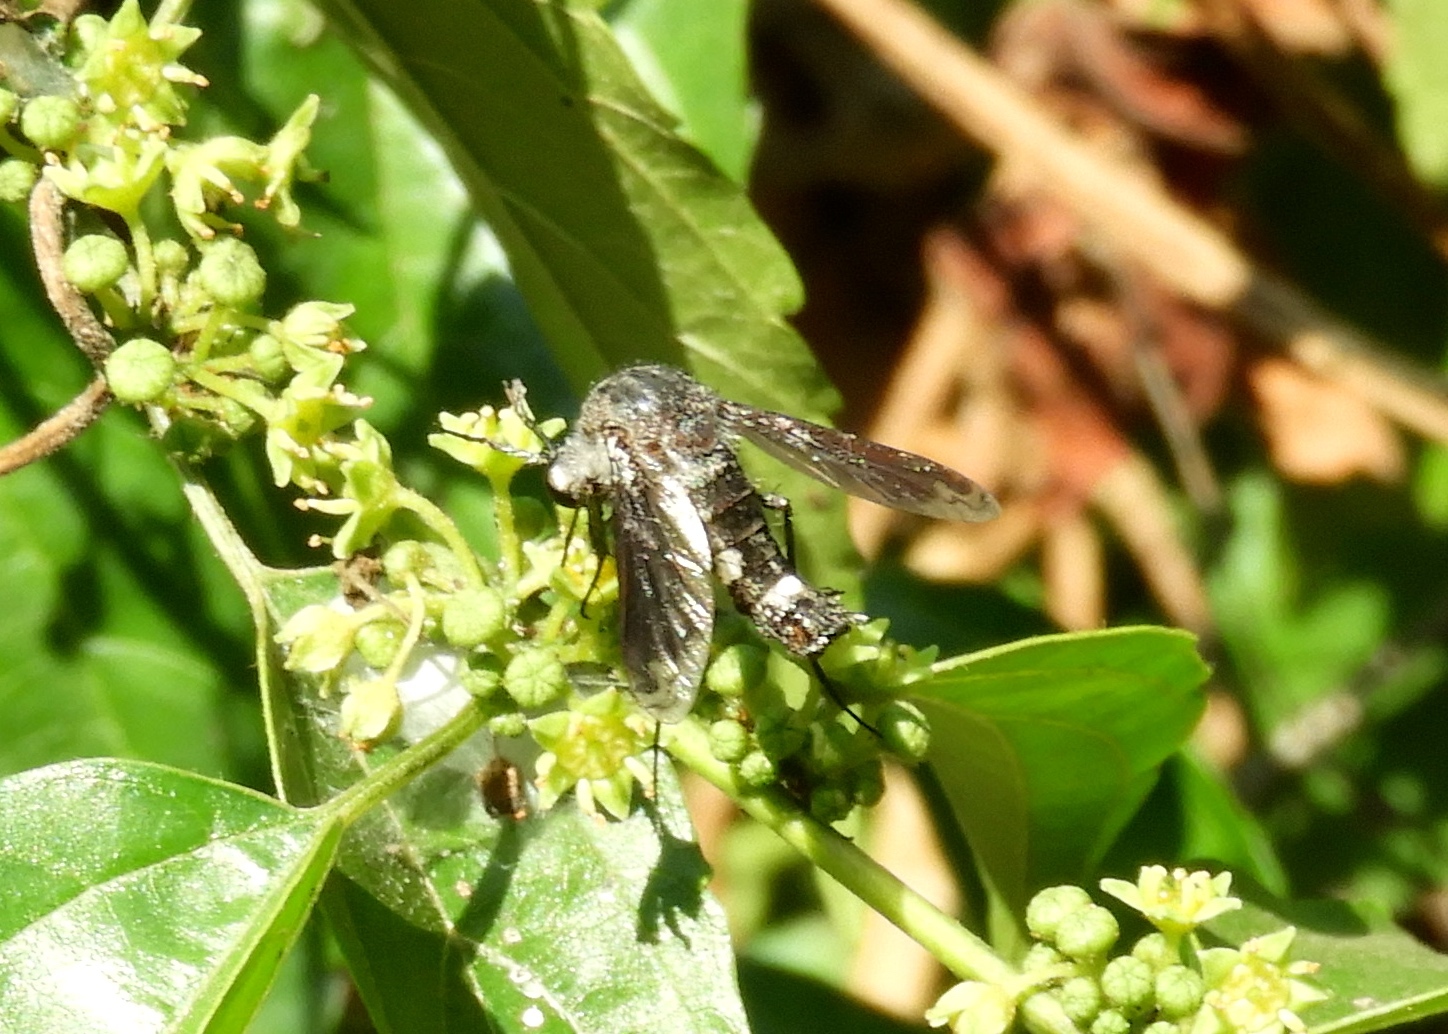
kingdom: Animalia
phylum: Arthropoda
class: Insecta
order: Diptera
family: Bombyliidae
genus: Lepidophora
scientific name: Lepidophora vetusta
